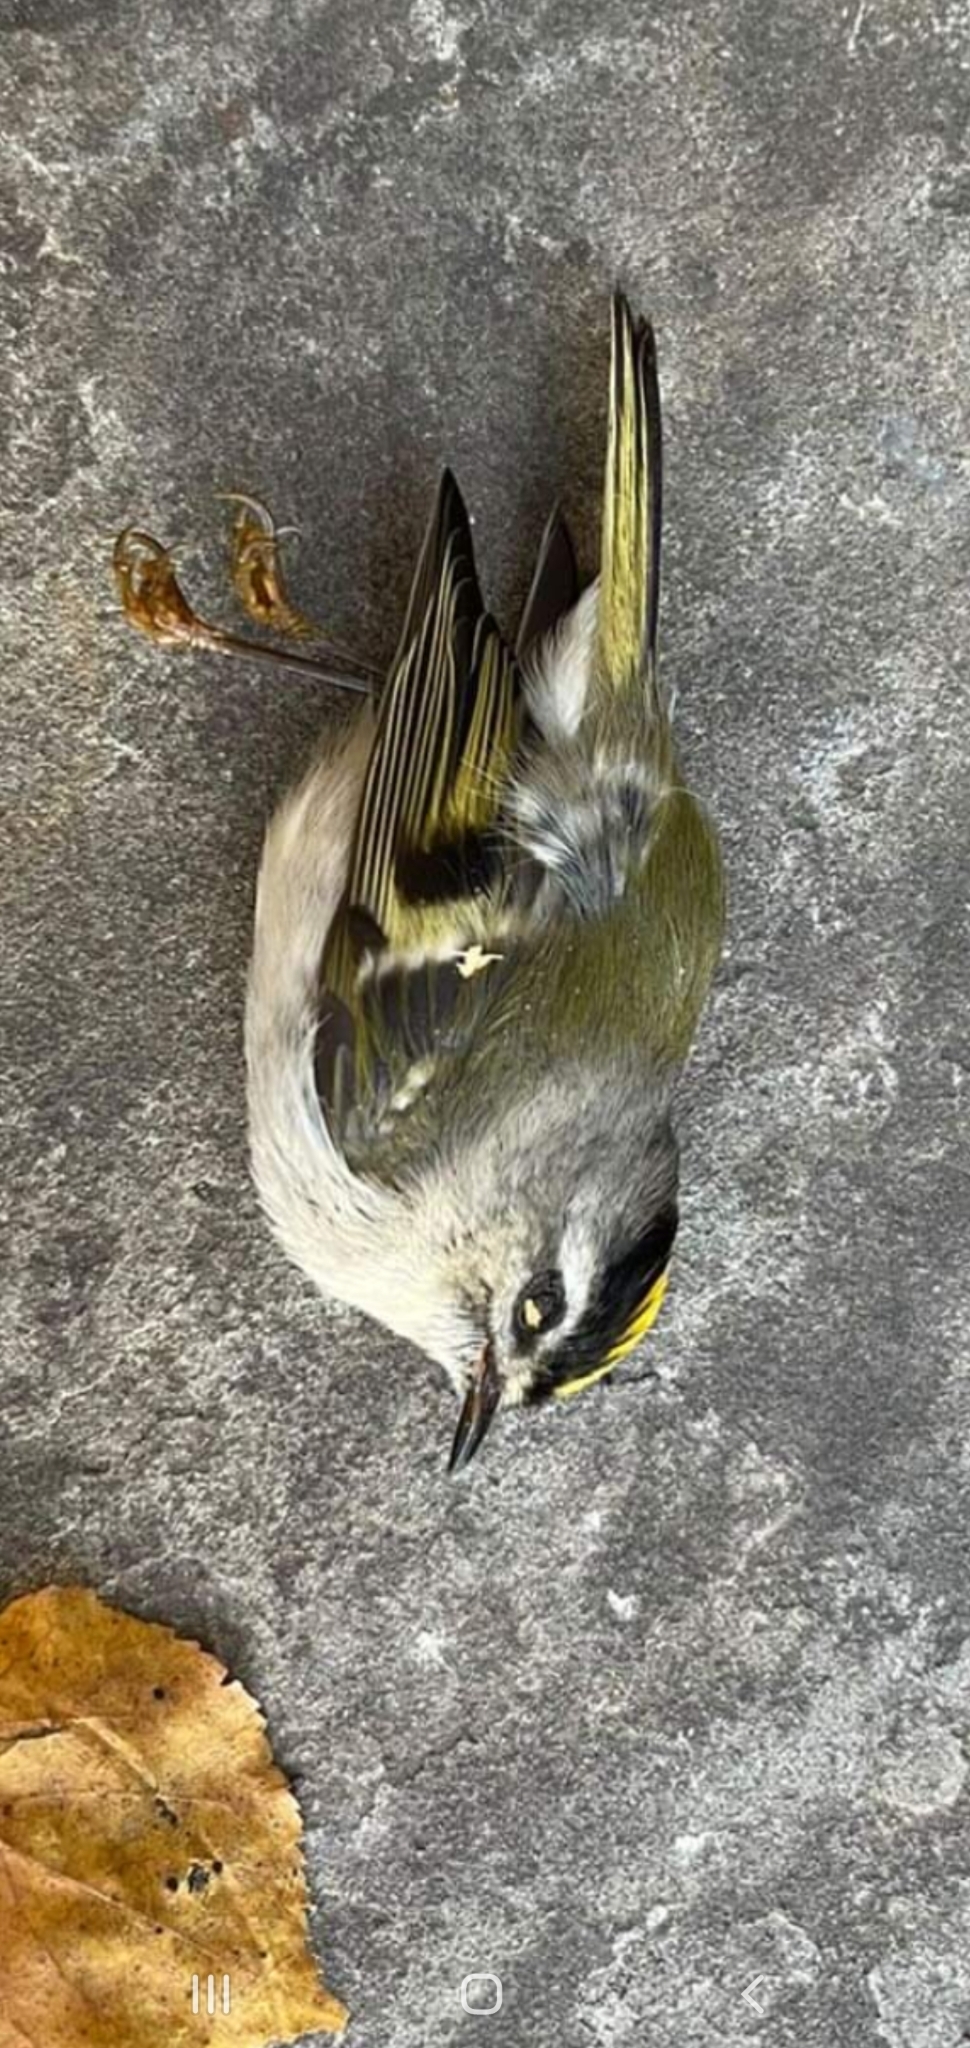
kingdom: Animalia
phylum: Chordata
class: Aves
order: Passeriformes
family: Regulidae
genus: Regulus
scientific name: Regulus satrapa
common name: Golden-crowned kinglet
